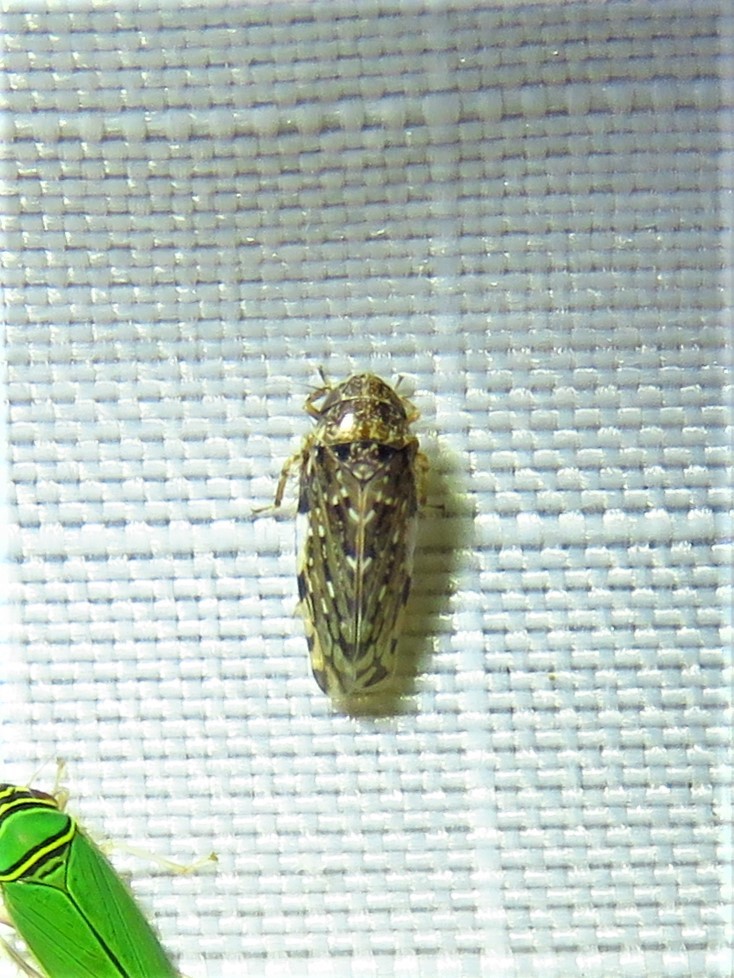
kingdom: Animalia
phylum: Arthropoda
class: Insecta
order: Hemiptera
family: Cicadellidae
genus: Xestocephalus
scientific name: Xestocephalus tessellatus
